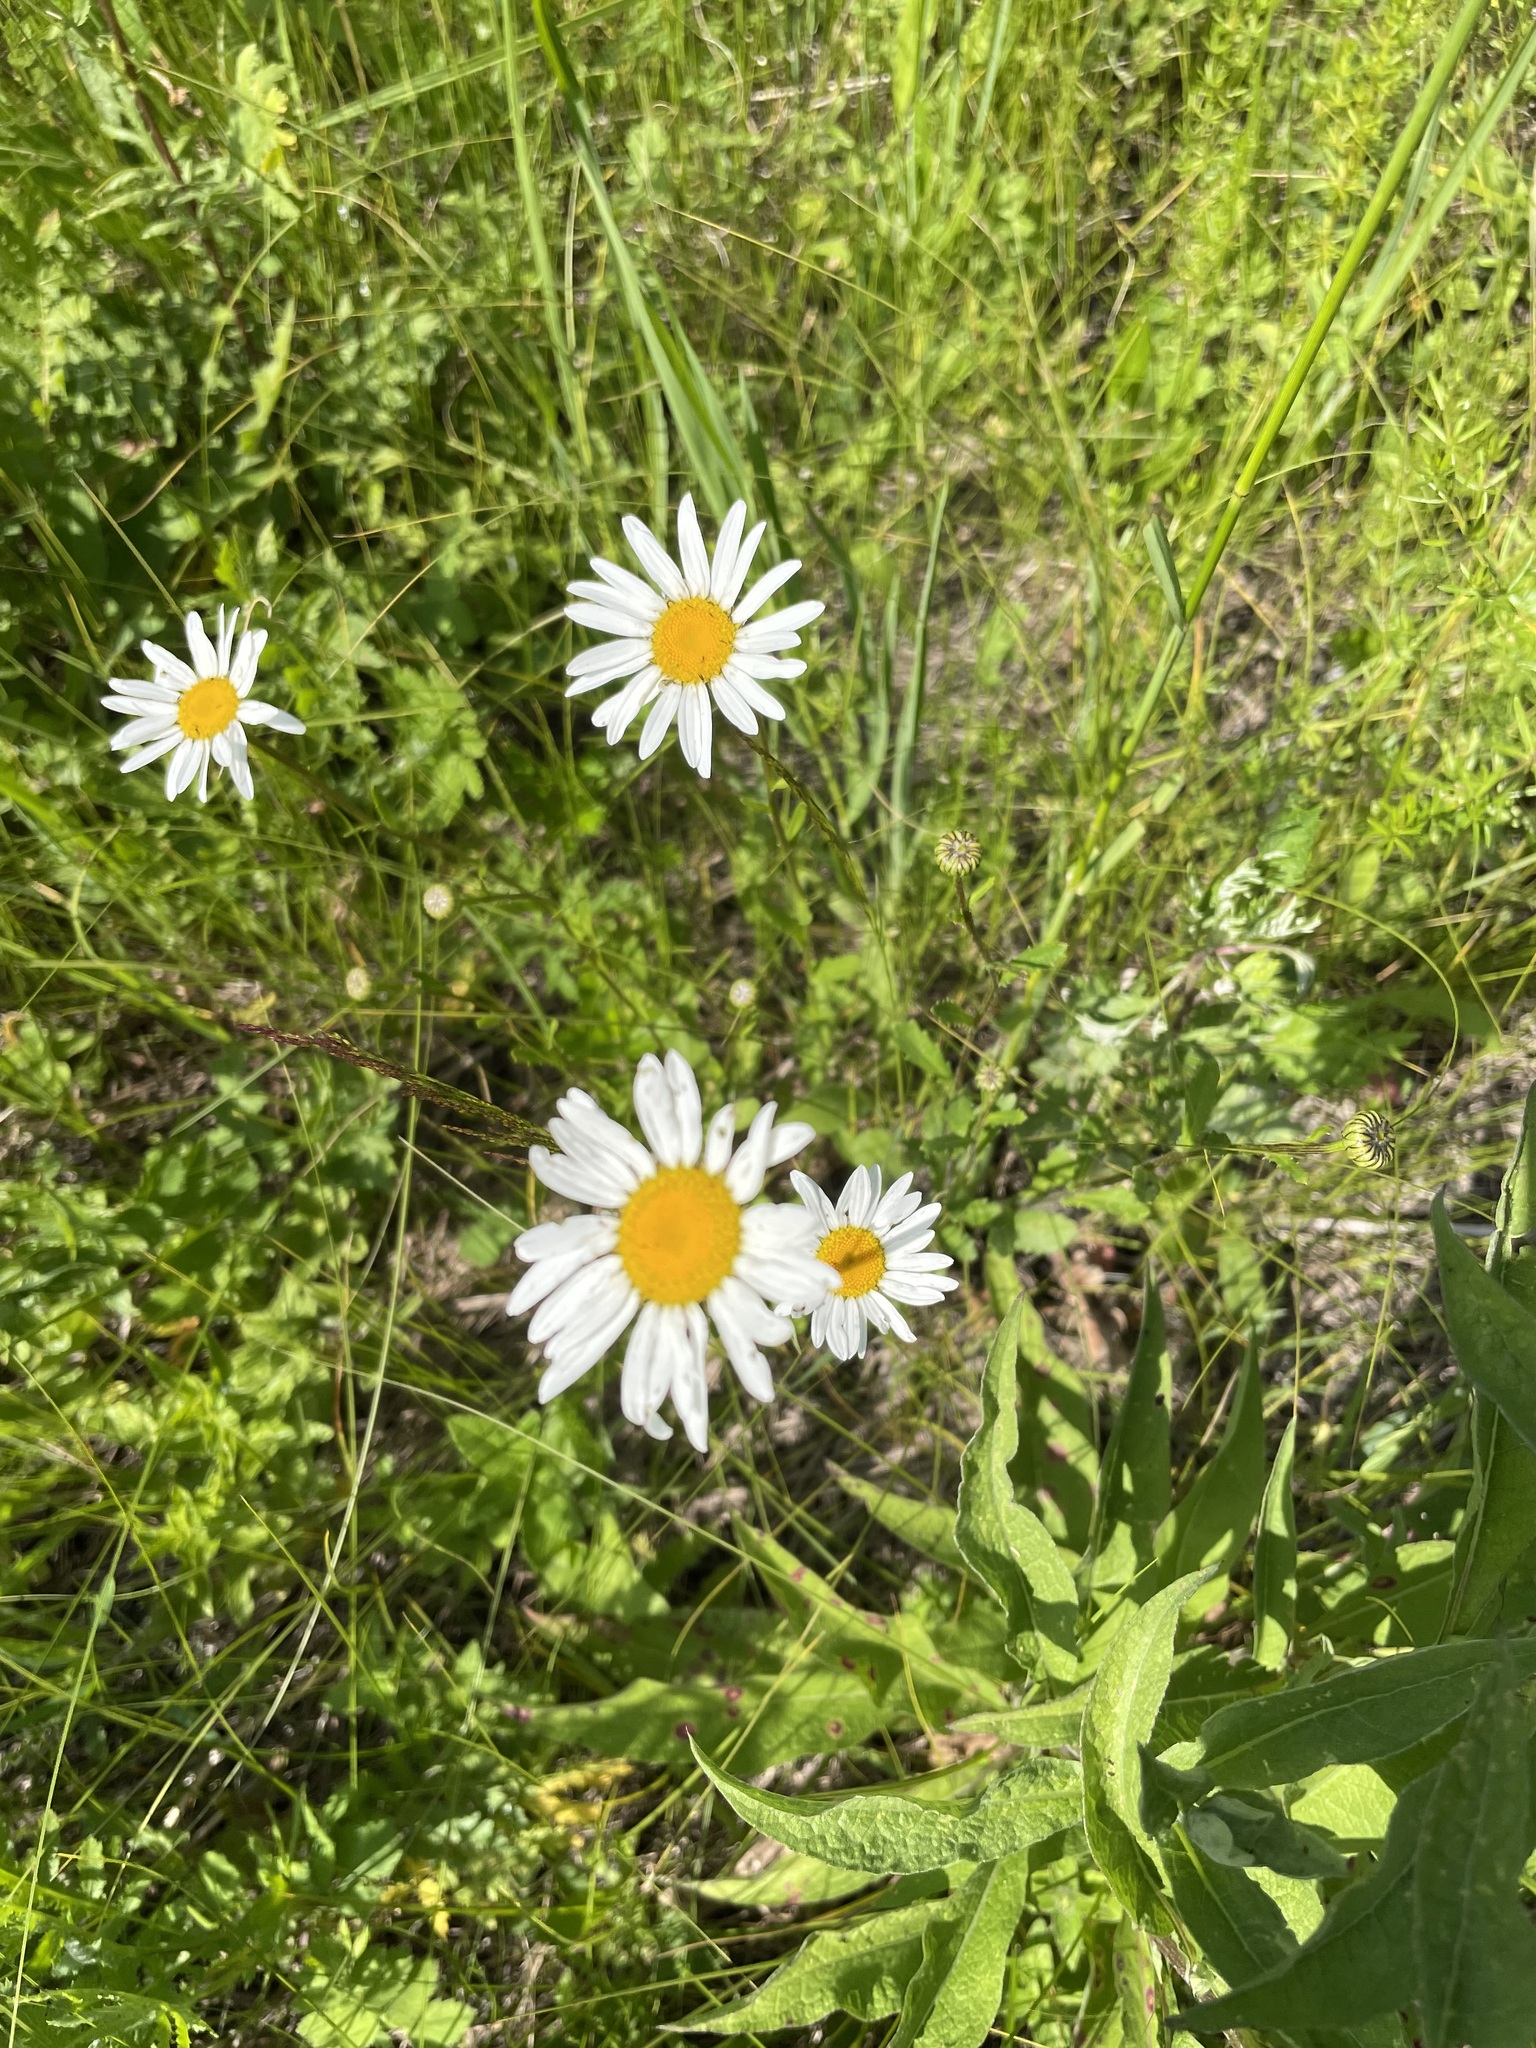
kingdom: Plantae
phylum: Tracheophyta
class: Magnoliopsida
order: Asterales
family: Asteraceae
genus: Leucanthemum
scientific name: Leucanthemum vulgare
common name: Oxeye daisy
